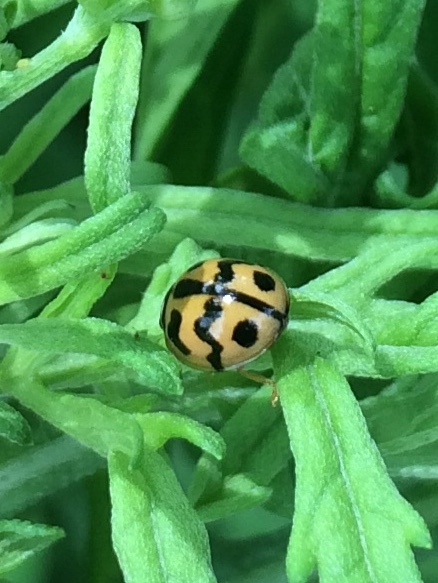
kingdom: Animalia
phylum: Arthropoda
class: Insecta
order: Coleoptera
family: Coccinellidae
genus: Cheilomenes
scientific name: Cheilomenes sexmaculata
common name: Ladybird beetle
